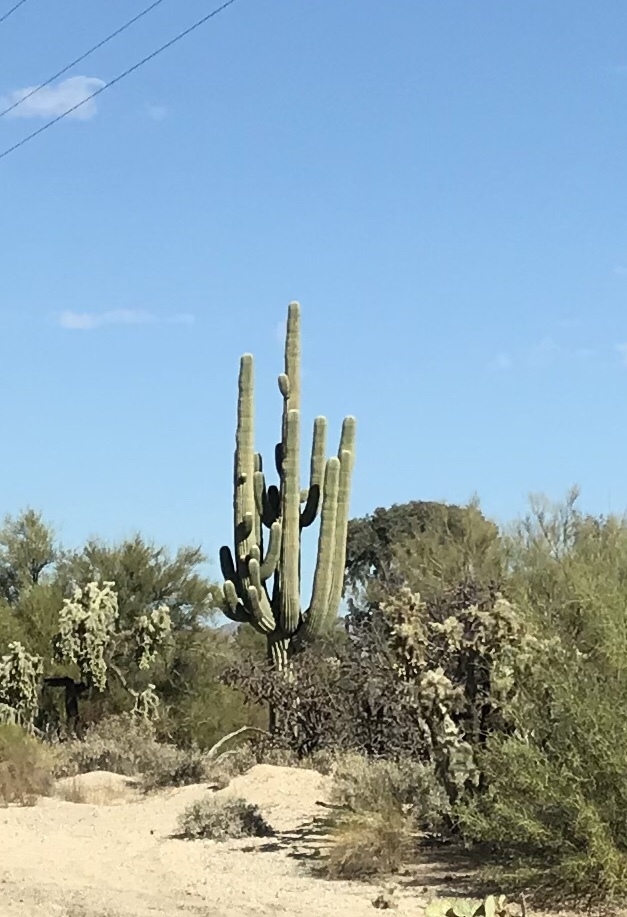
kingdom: Plantae
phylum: Tracheophyta
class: Magnoliopsida
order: Caryophyllales
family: Cactaceae
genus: Carnegiea
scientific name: Carnegiea gigantea
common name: Saguaro
